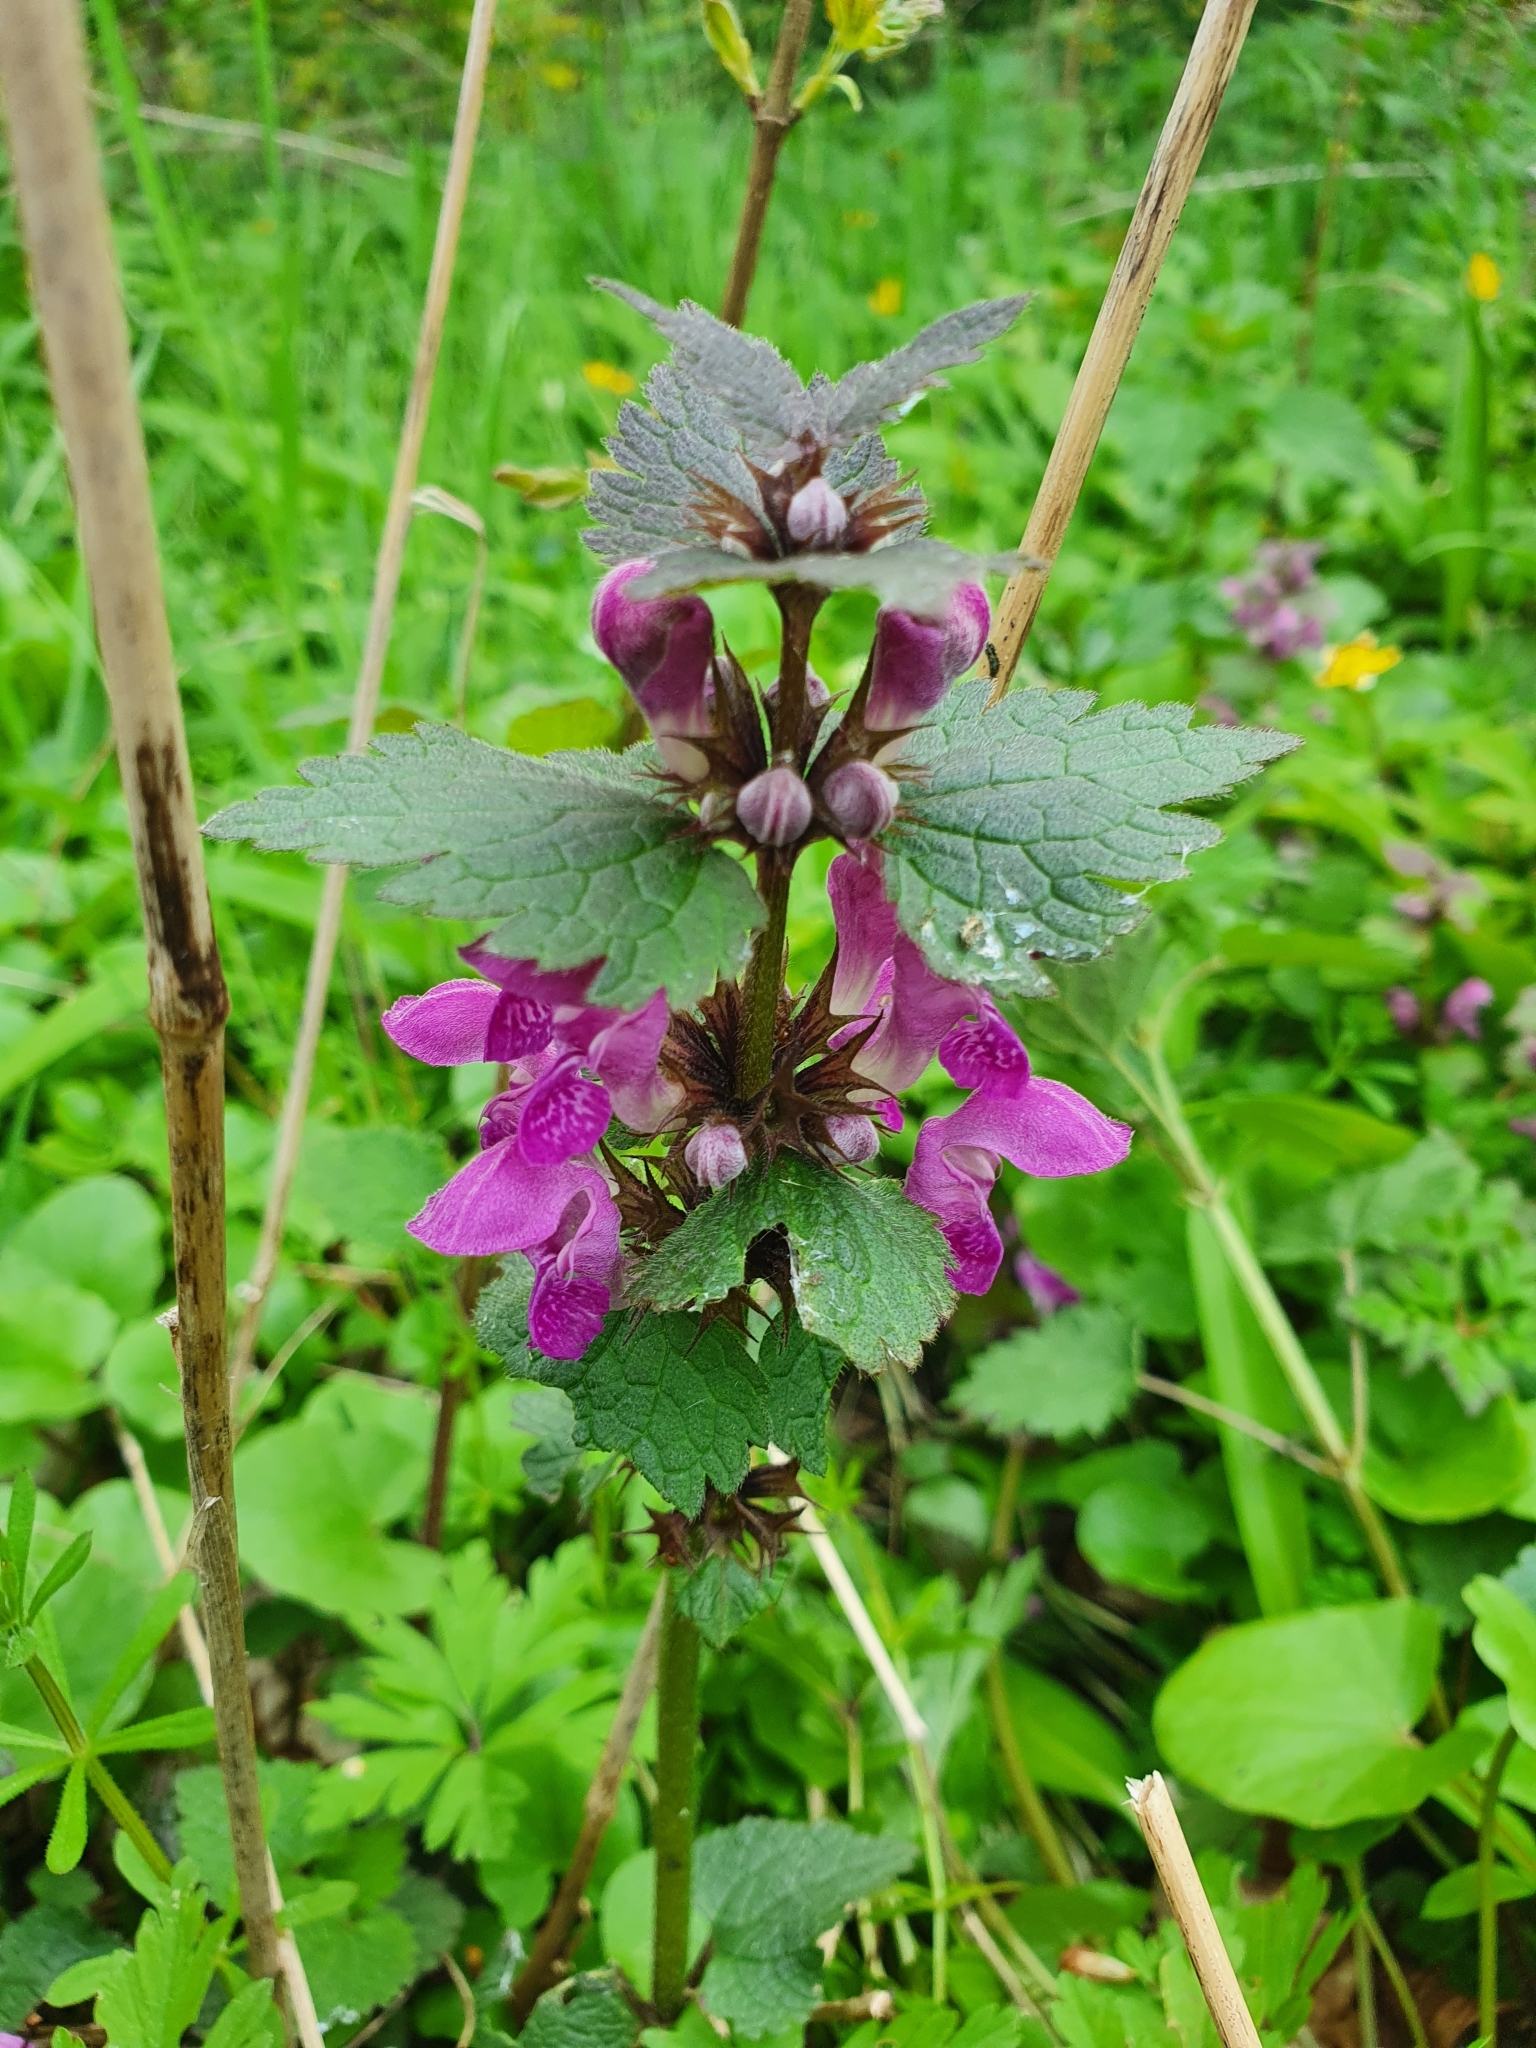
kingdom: Plantae
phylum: Tracheophyta
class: Magnoliopsida
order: Lamiales
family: Lamiaceae
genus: Lamium
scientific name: Lamium maculatum
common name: Spotted dead-nettle
